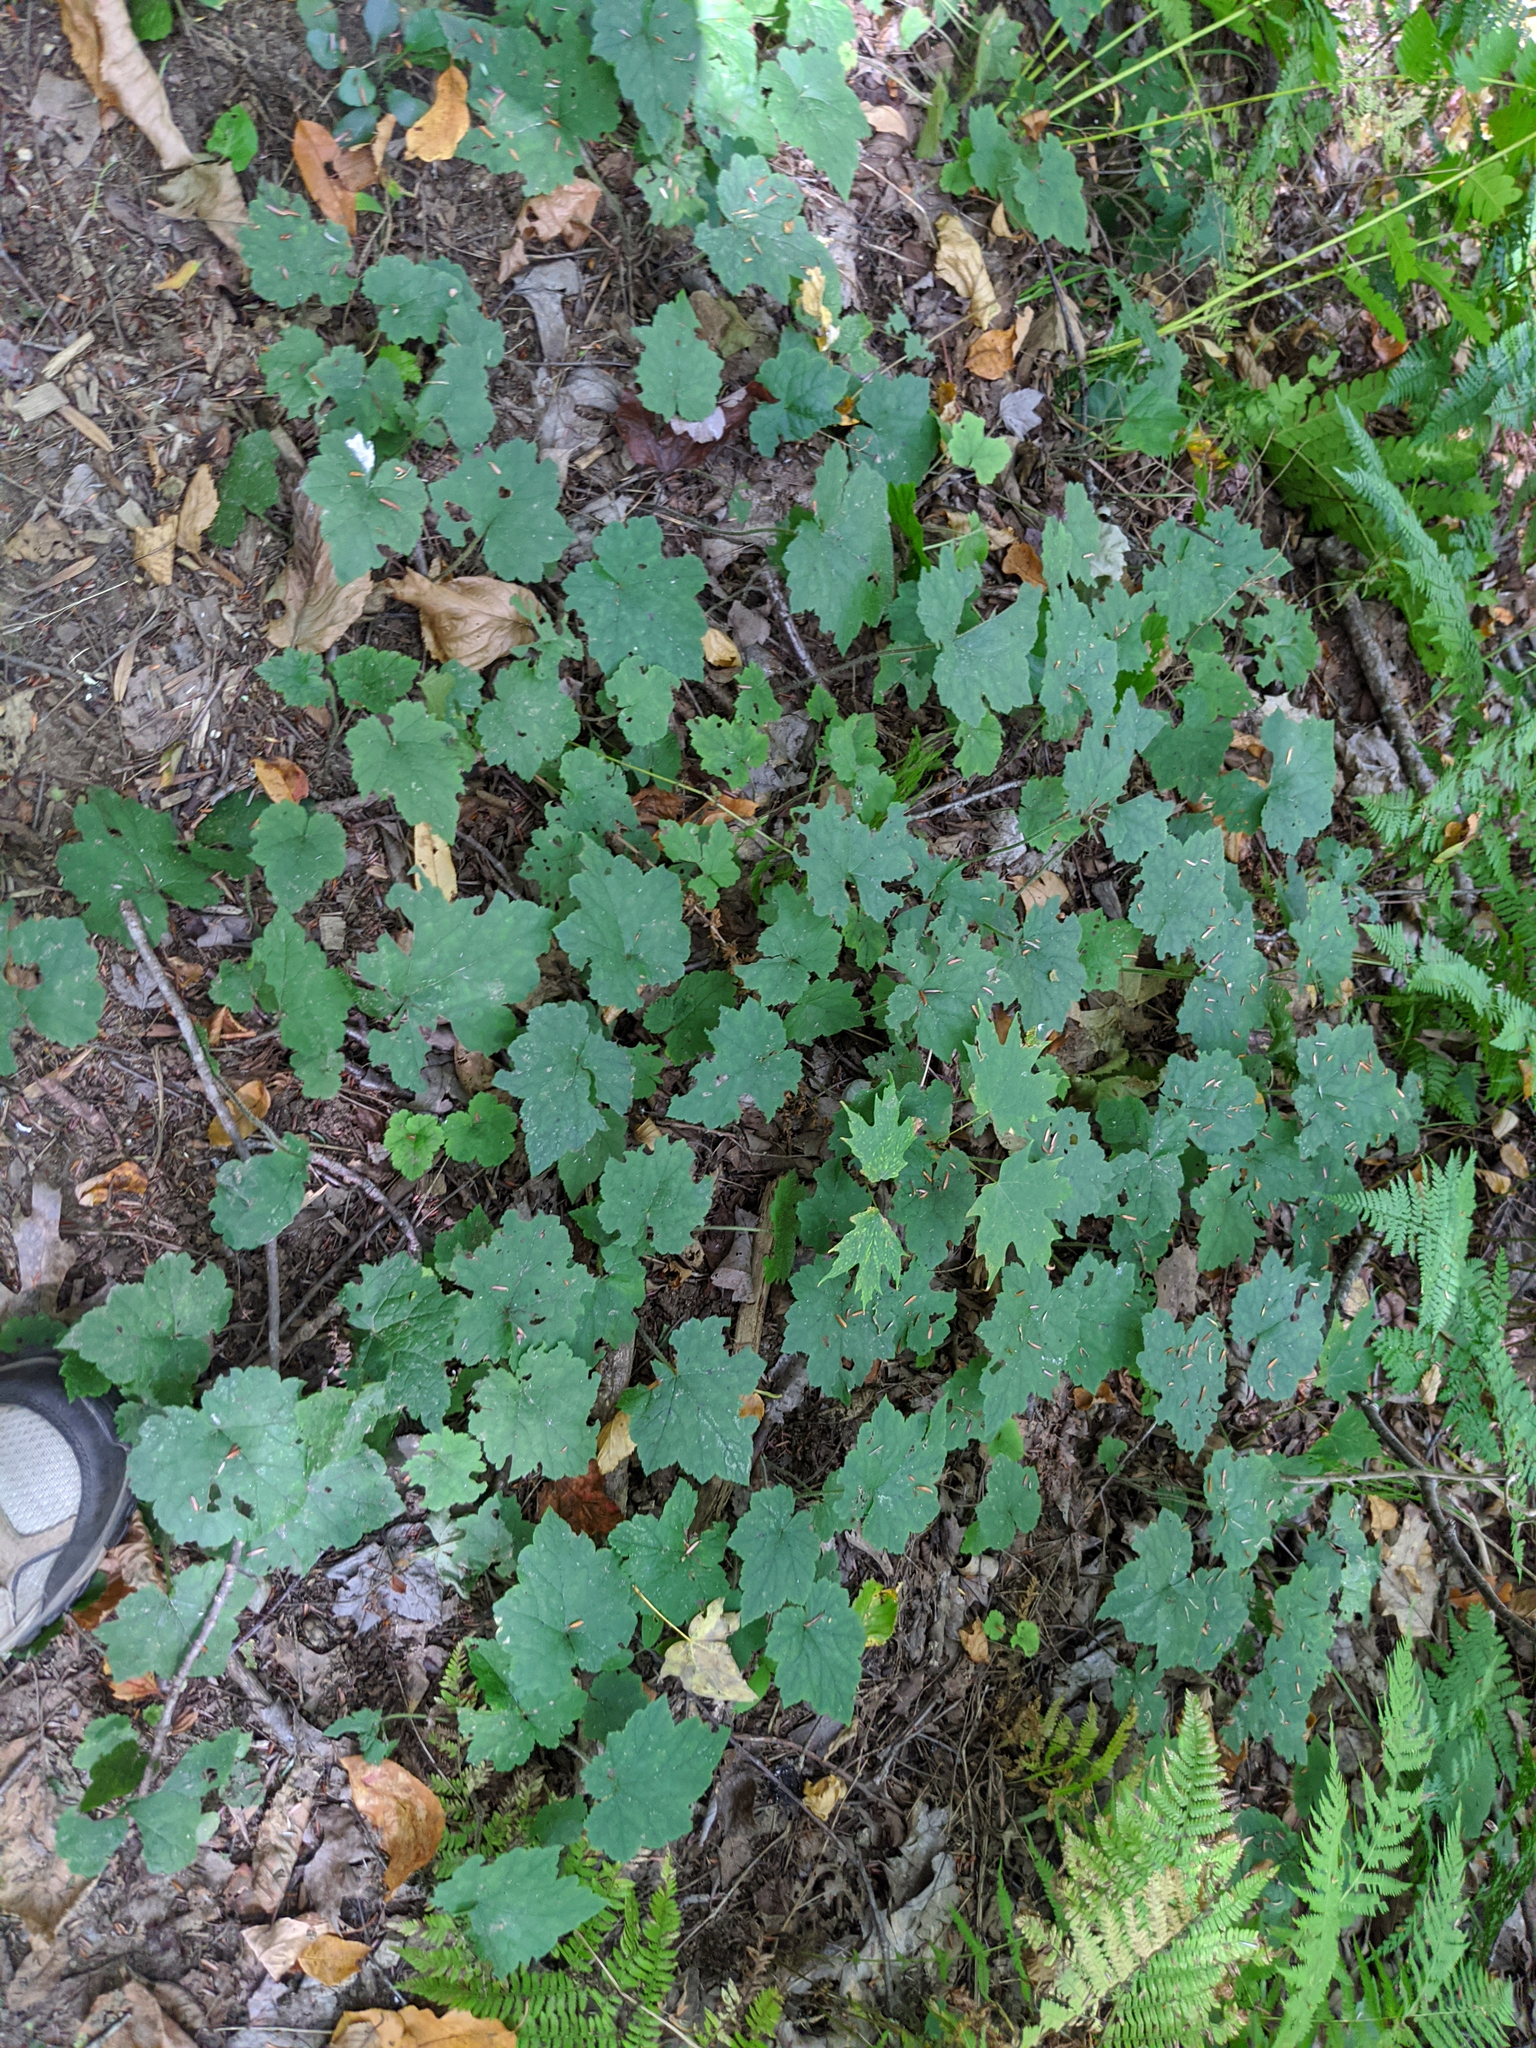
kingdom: Plantae
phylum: Tracheophyta
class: Magnoliopsida
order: Saxifragales
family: Saxifragaceae
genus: Tiarella
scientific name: Tiarella stolonifera
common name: Stoloniferous foamflower
